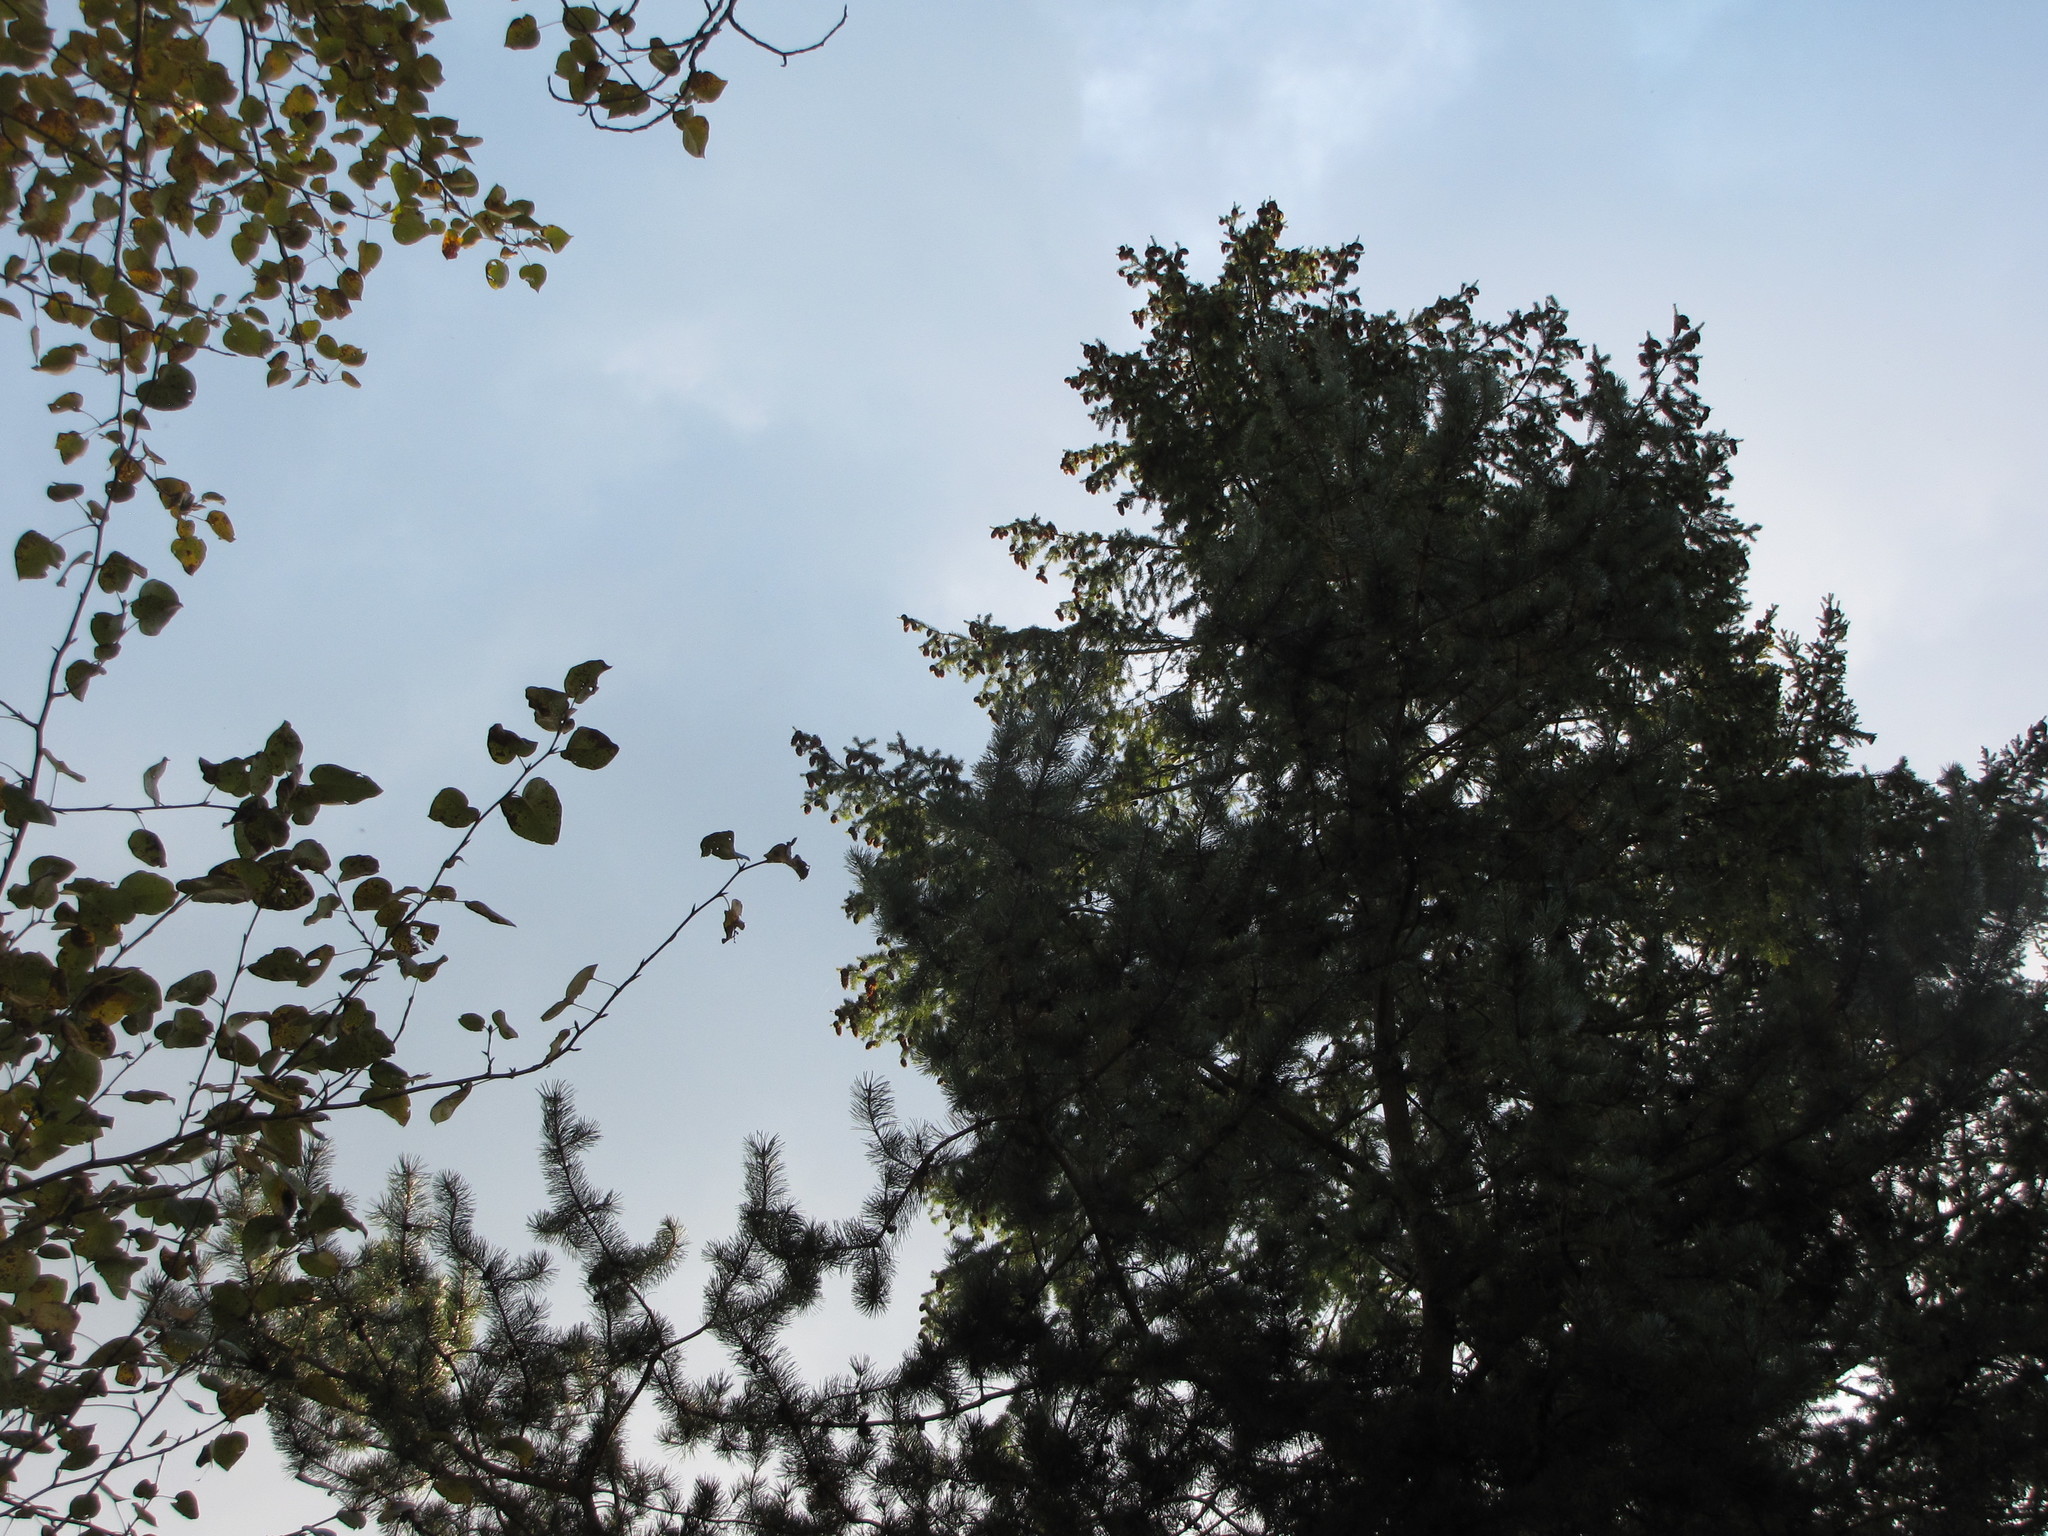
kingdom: Plantae
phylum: Tracheophyta
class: Pinopsida
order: Pinales
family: Pinaceae
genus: Pinus
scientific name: Pinus contorta
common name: Lodgepole pine
